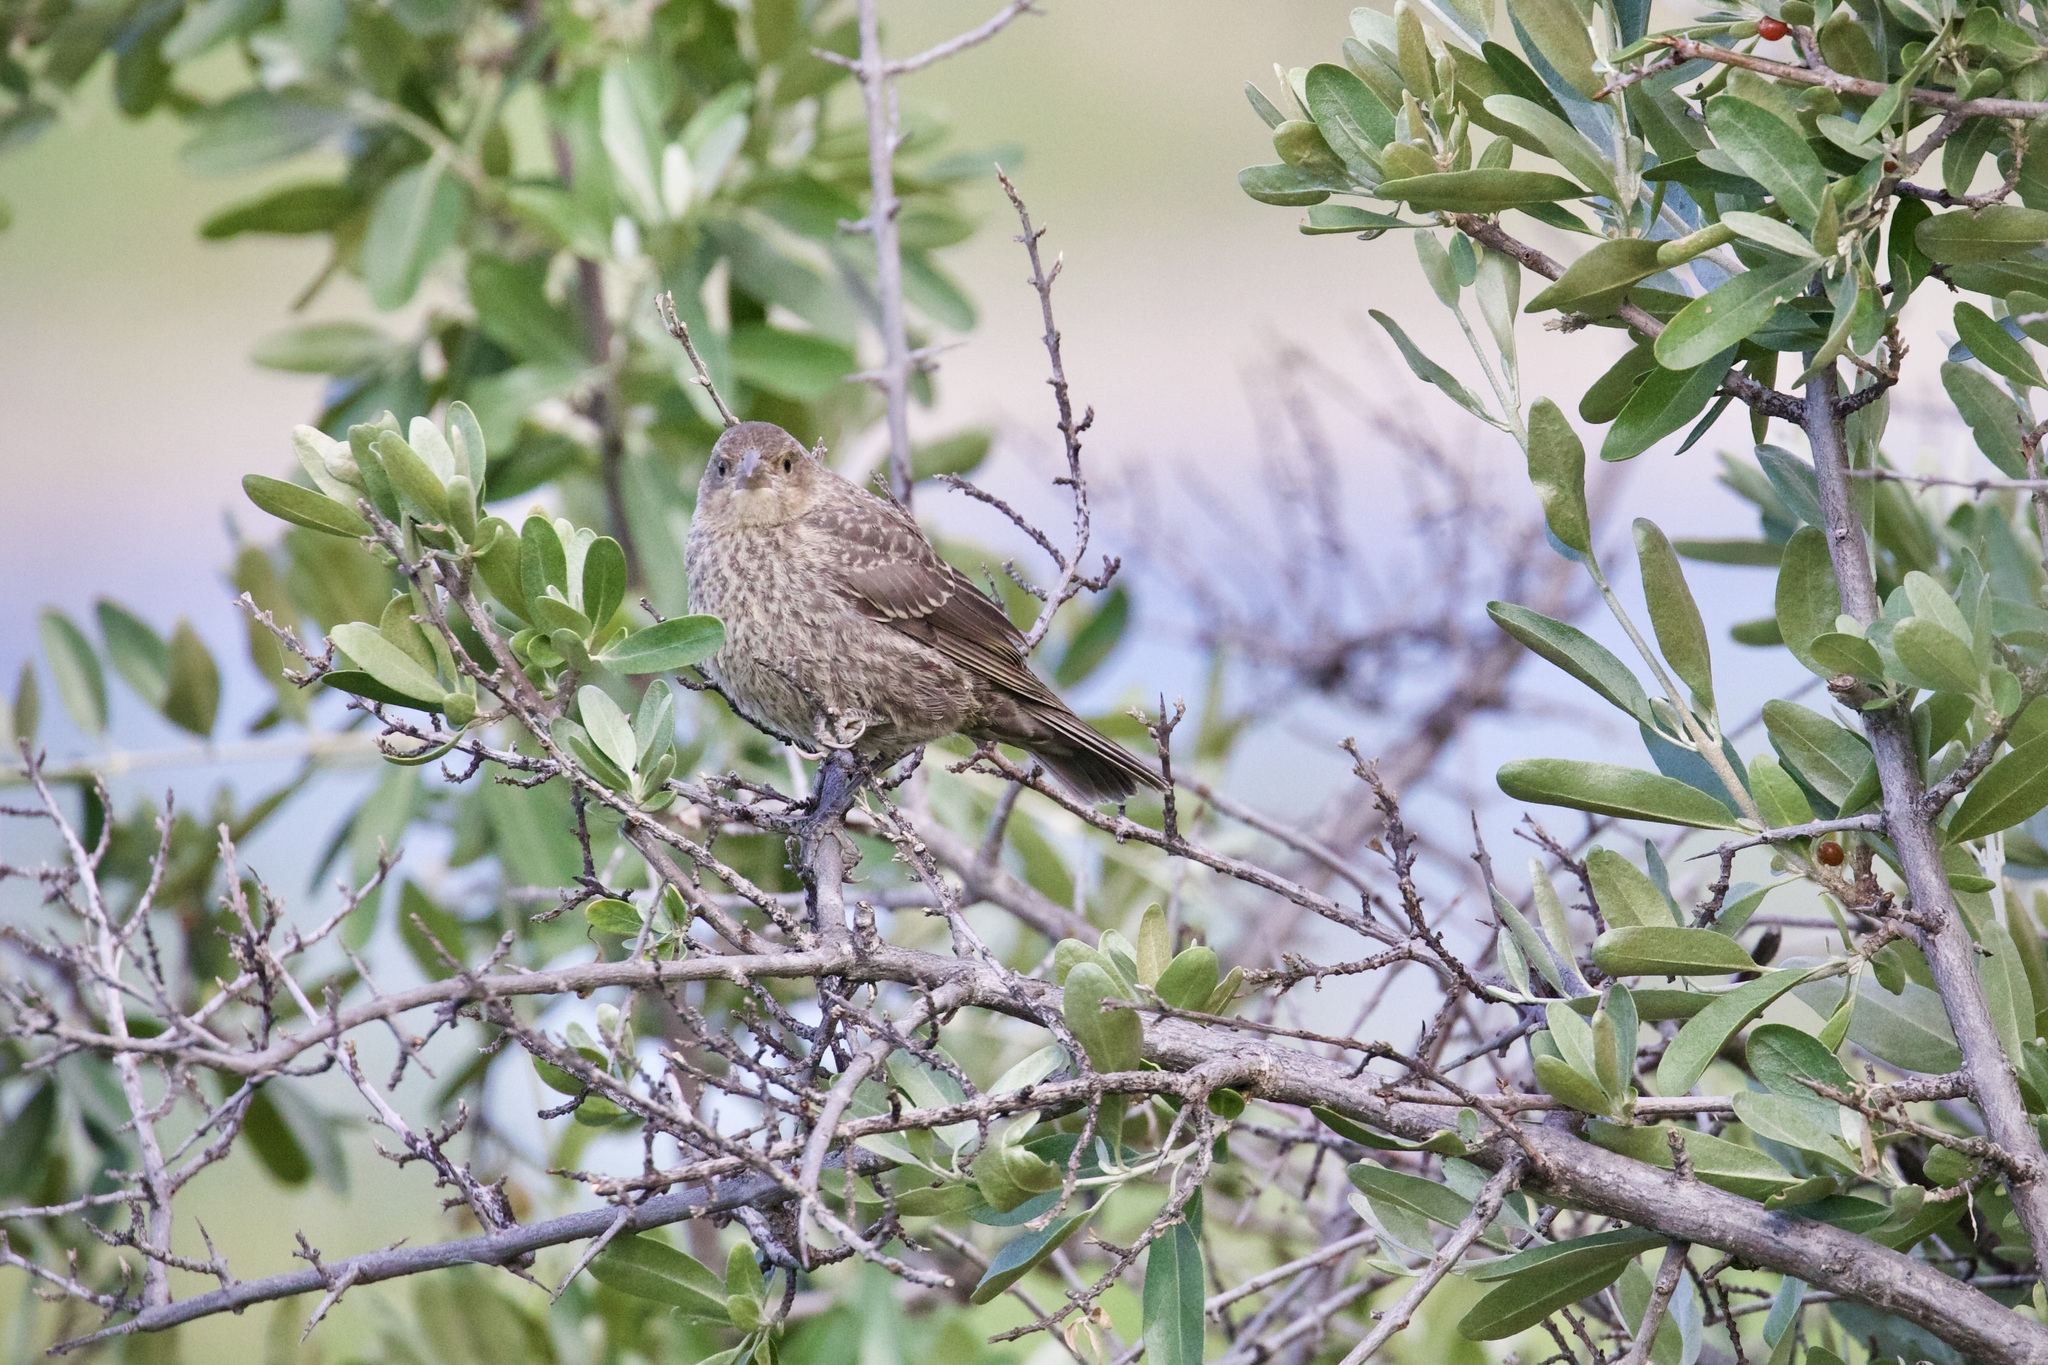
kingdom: Animalia
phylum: Chordata
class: Aves
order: Passeriformes
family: Icteridae
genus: Molothrus
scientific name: Molothrus ater
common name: Brown-headed cowbird
